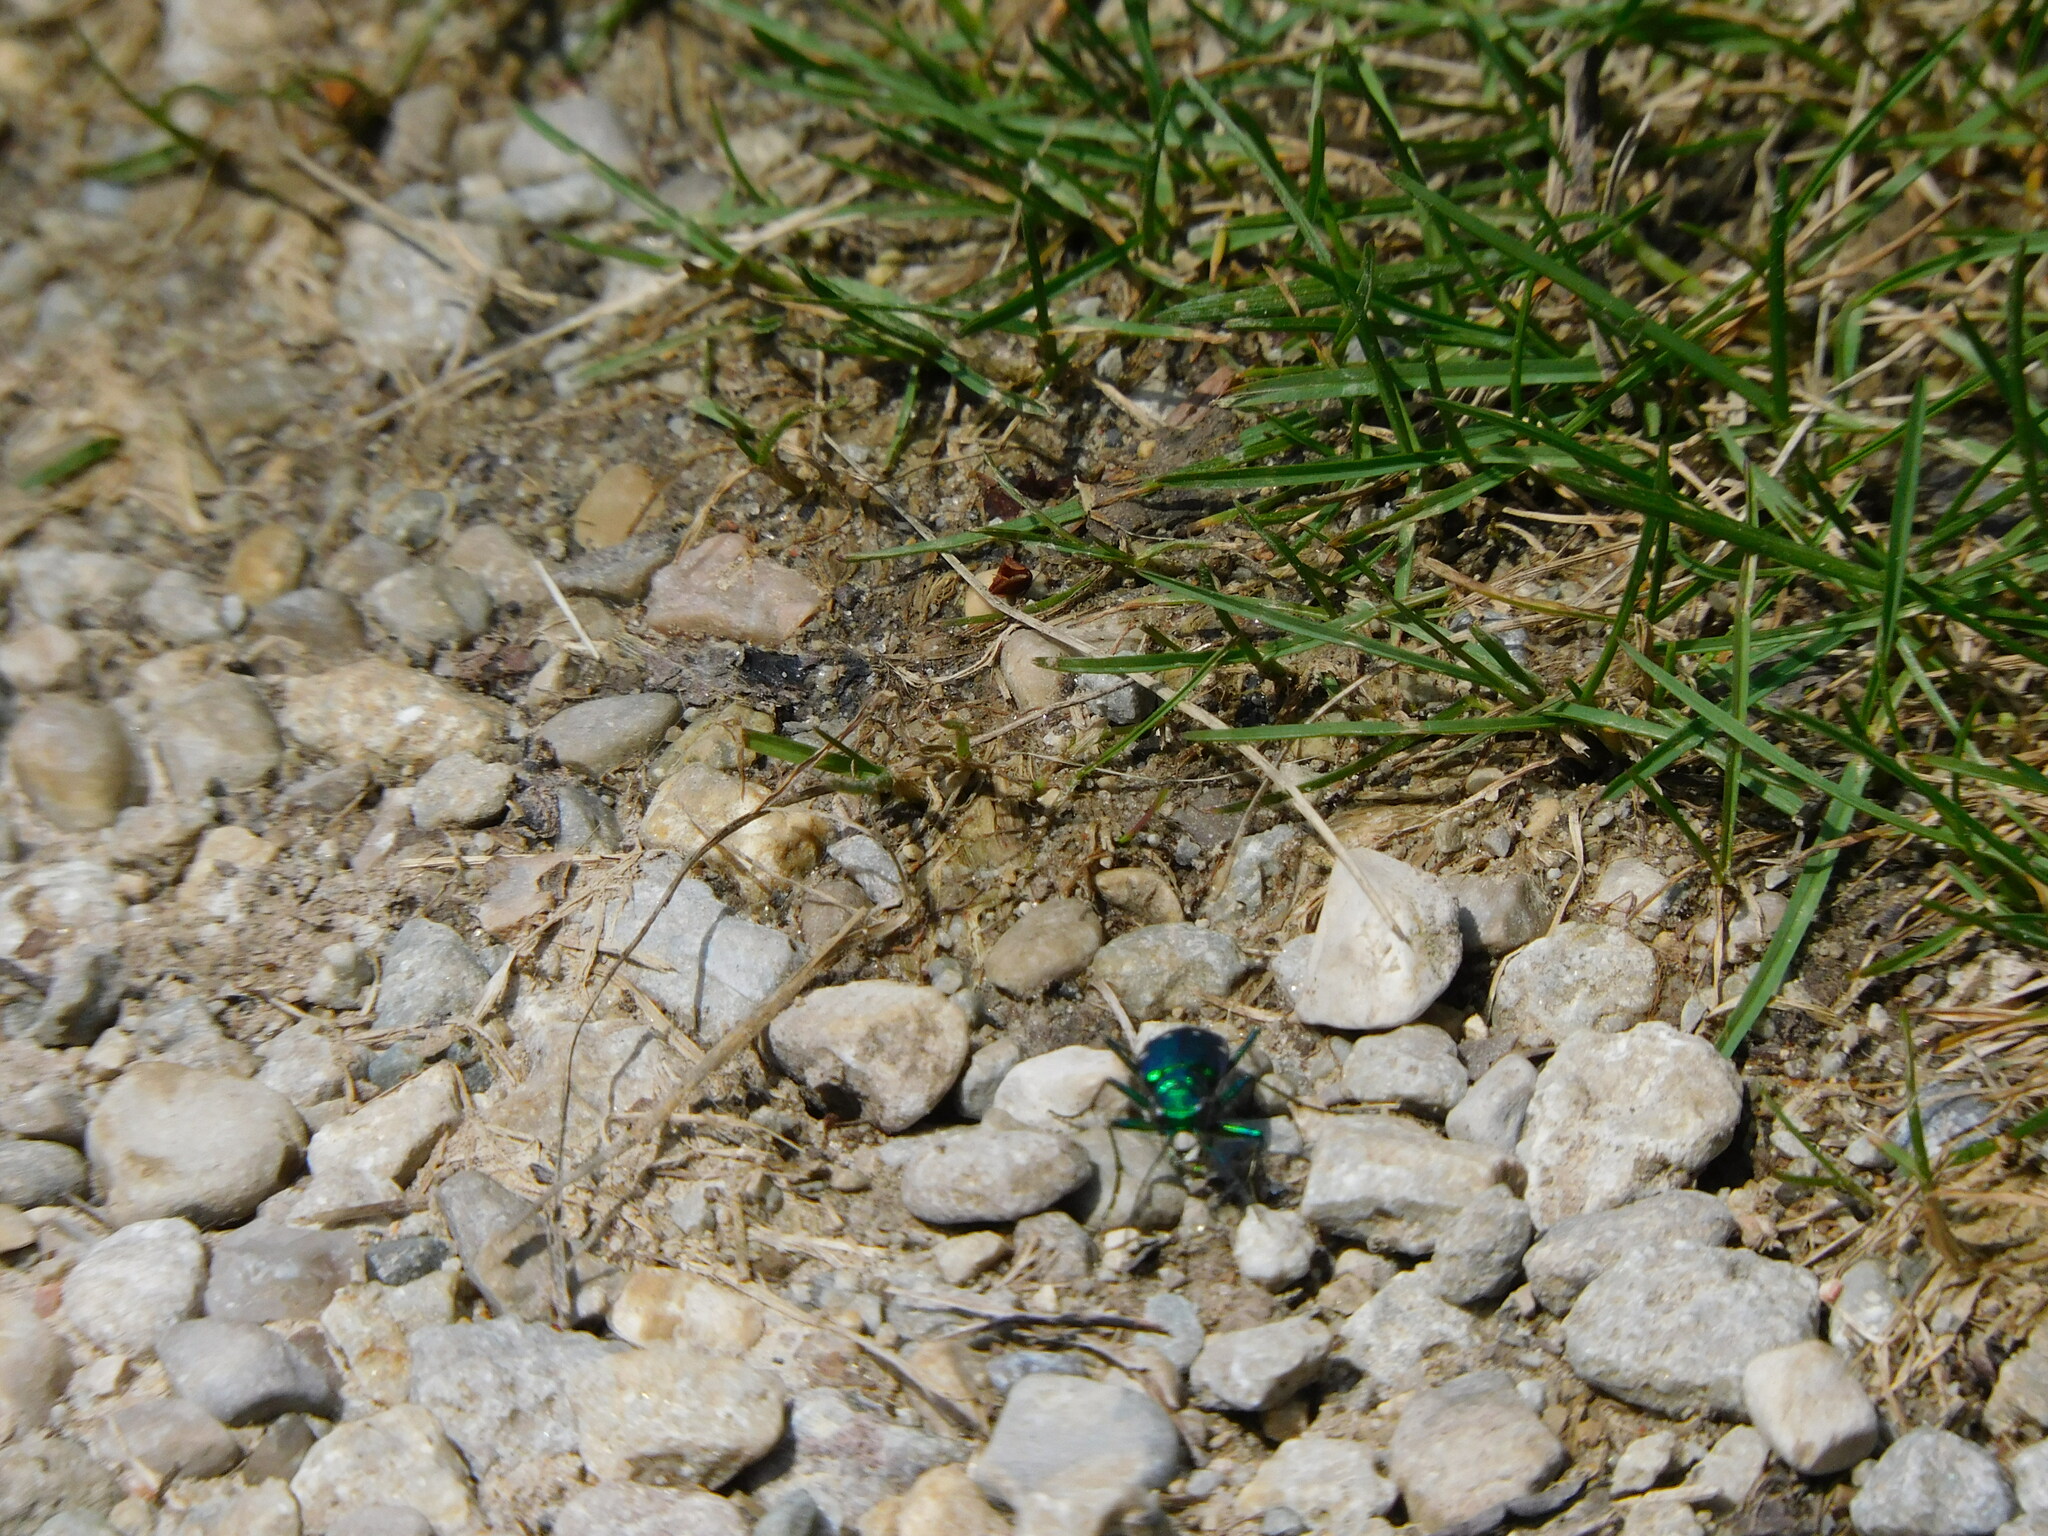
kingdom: Animalia
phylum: Arthropoda
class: Insecta
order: Coleoptera
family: Carabidae
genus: Cicindela
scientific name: Cicindela sexguttata
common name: Six-spotted tiger beetle
